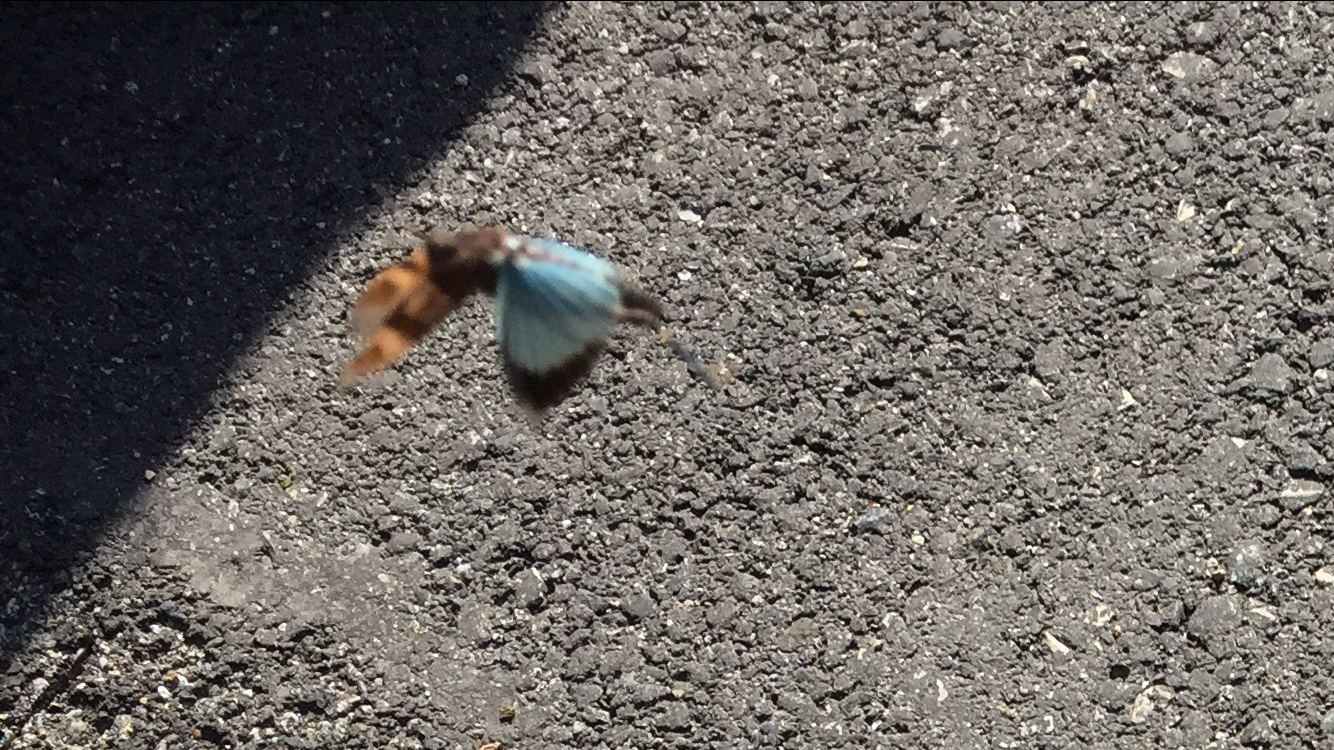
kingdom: Animalia
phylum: Arthropoda
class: Insecta
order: Orthoptera
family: Acrididae
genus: Oedipoda
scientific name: Oedipoda caerulescens
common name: Blue-winged grasshopper
